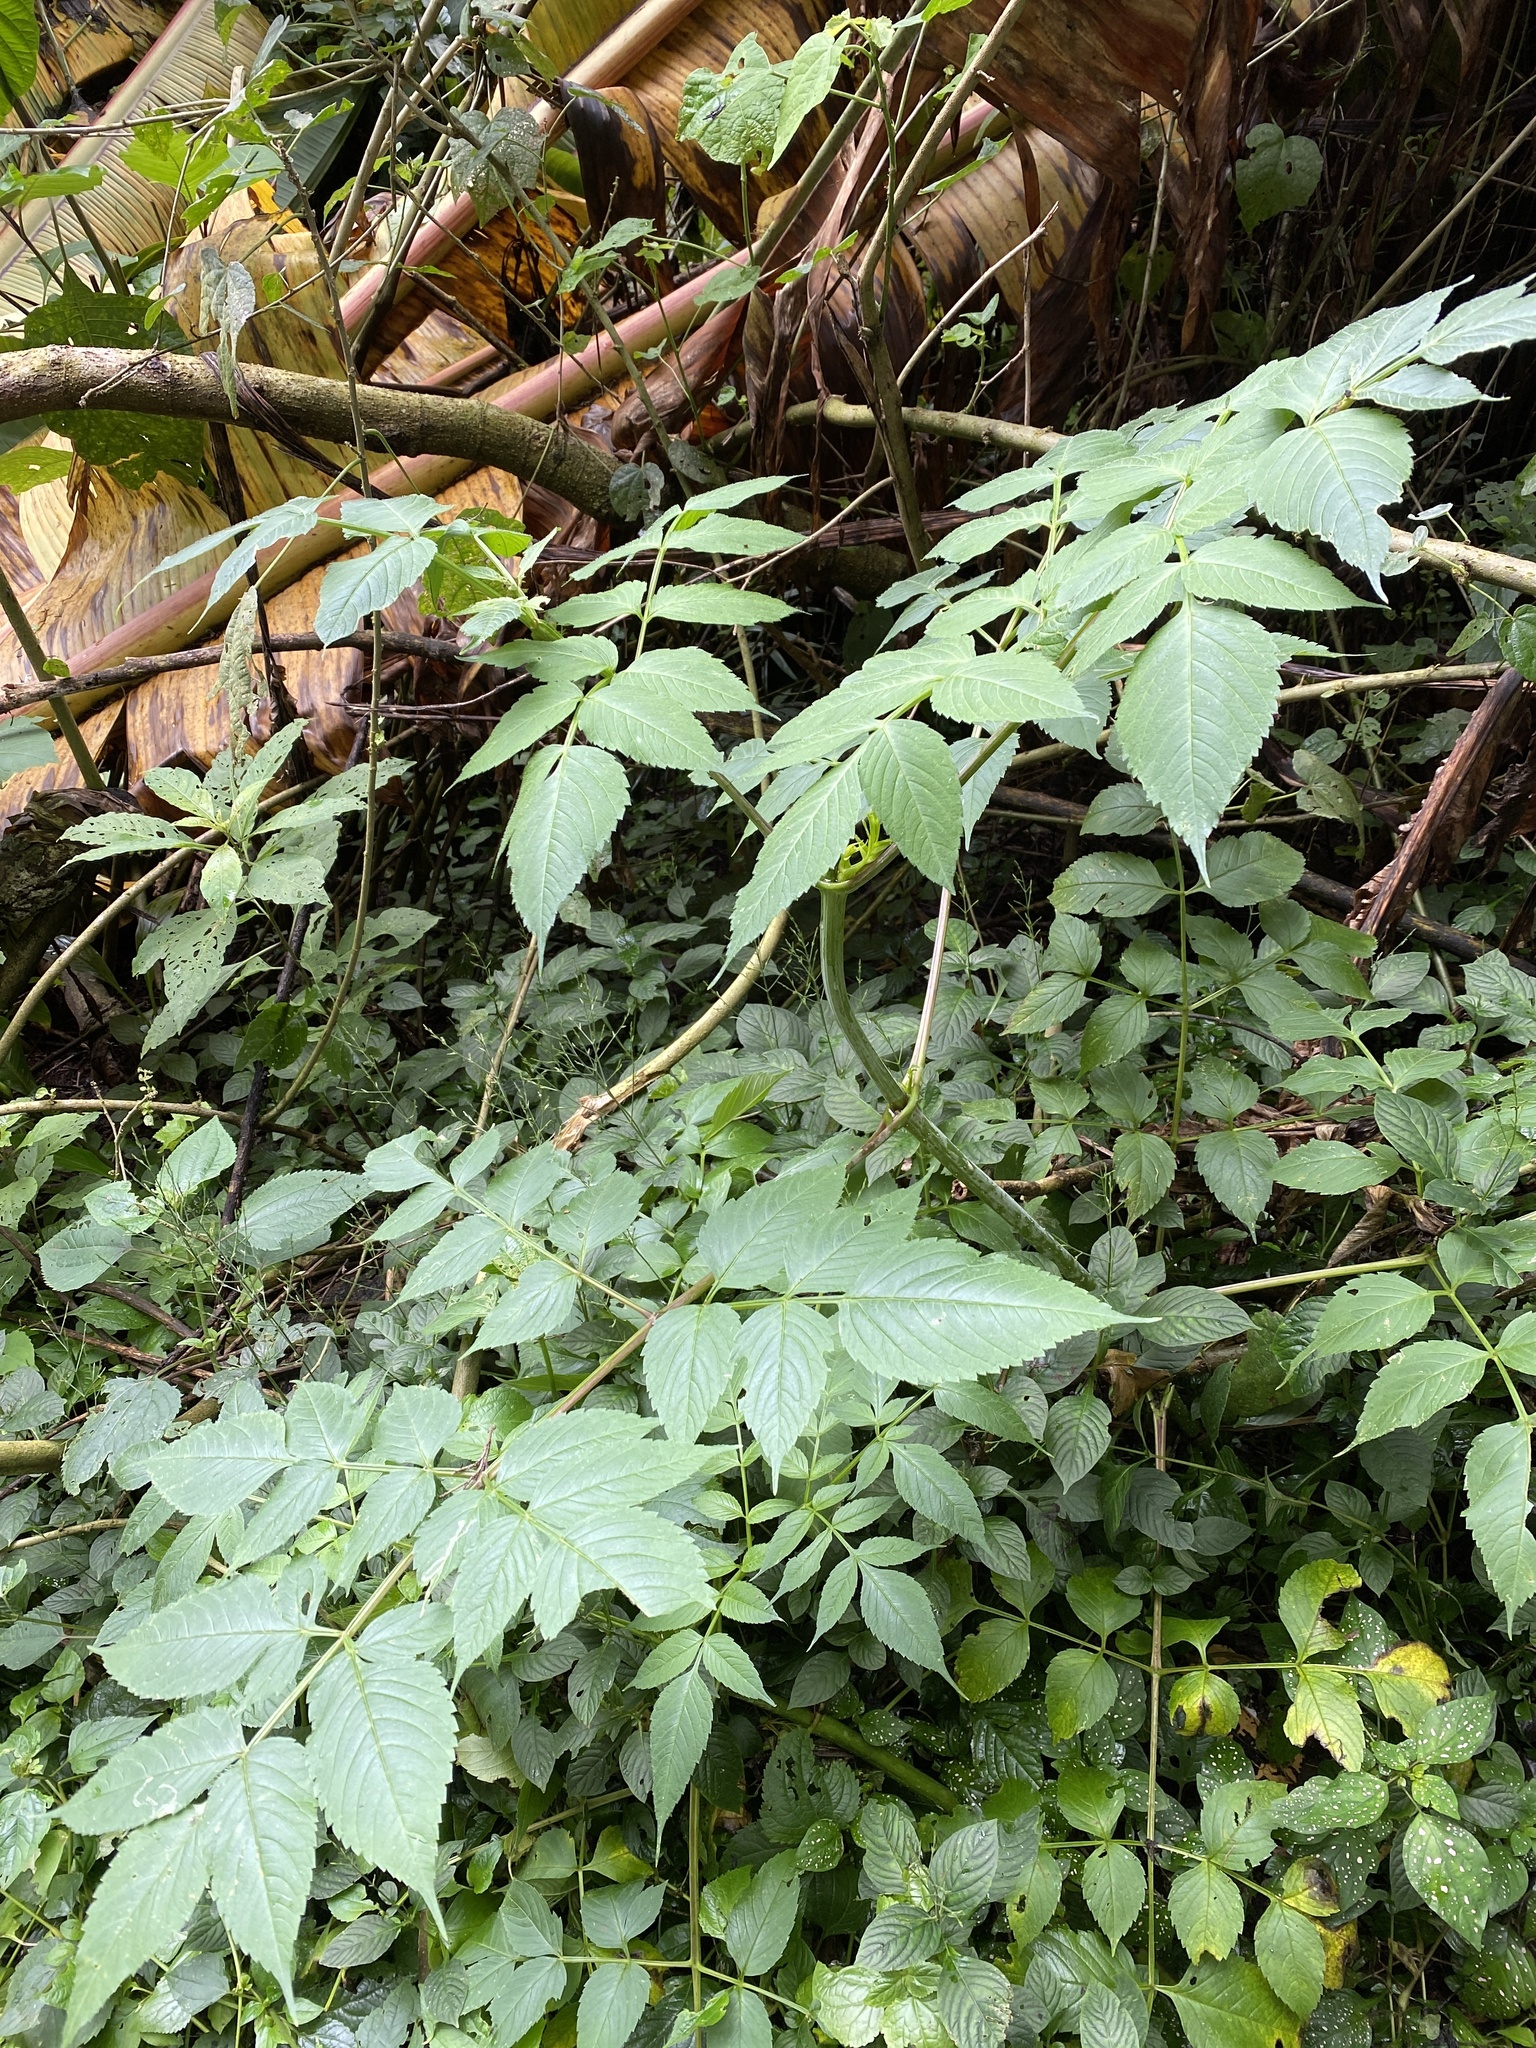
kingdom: Plantae
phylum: Tracheophyta
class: Magnoliopsida
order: Asterales
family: Asteraceae
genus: Dahlia
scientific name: Dahlia imperialis
